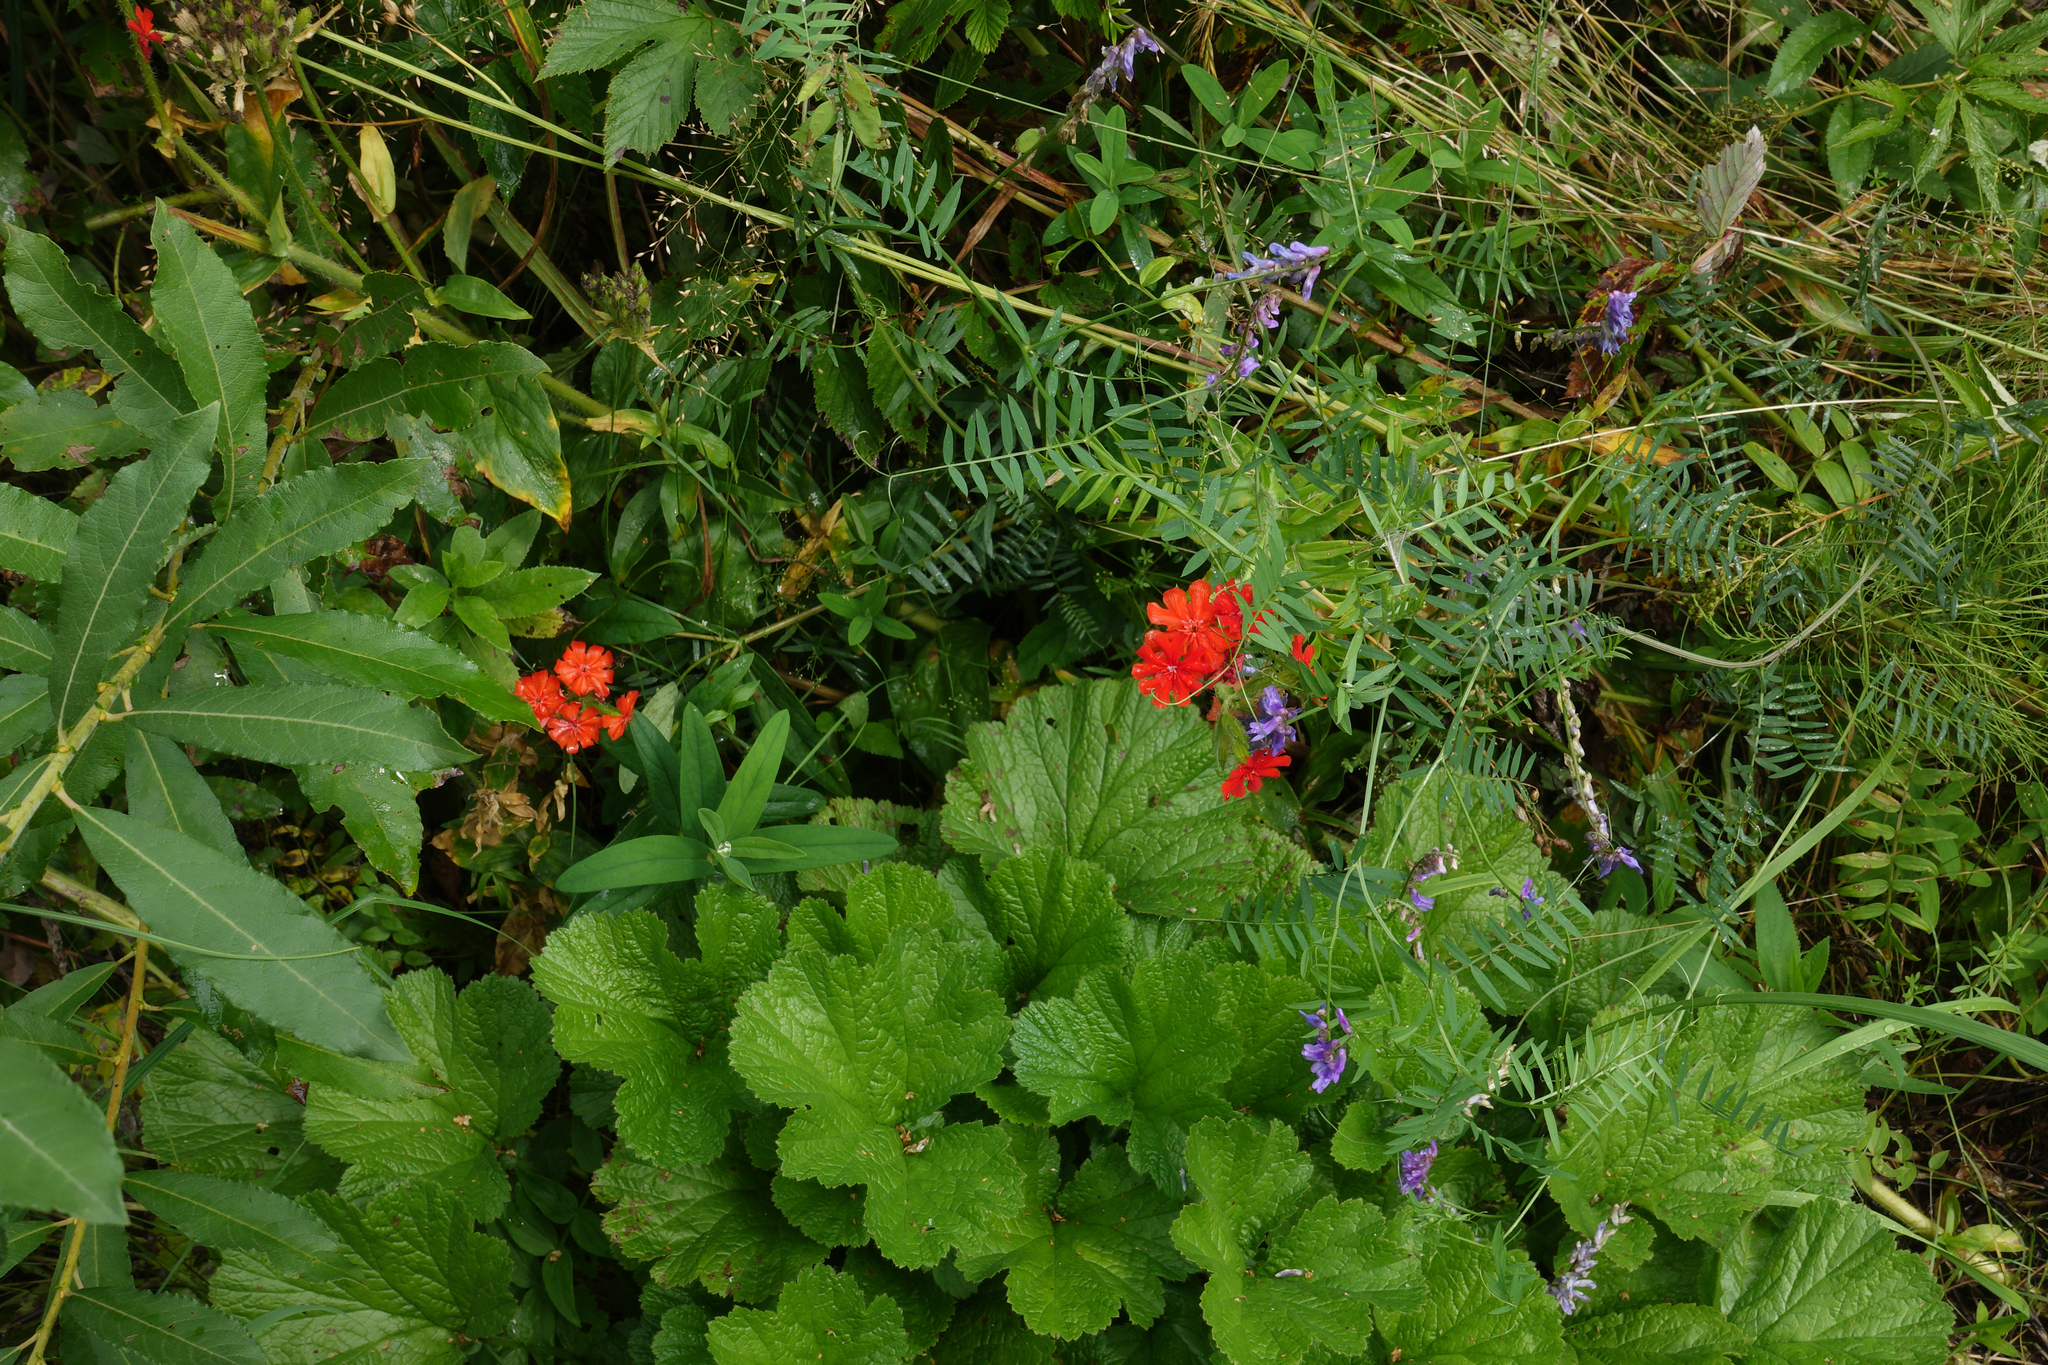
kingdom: Plantae
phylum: Tracheophyta
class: Magnoliopsida
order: Fabales
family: Fabaceae
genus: Vicia
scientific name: Vicia cracca
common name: Bird vetch
